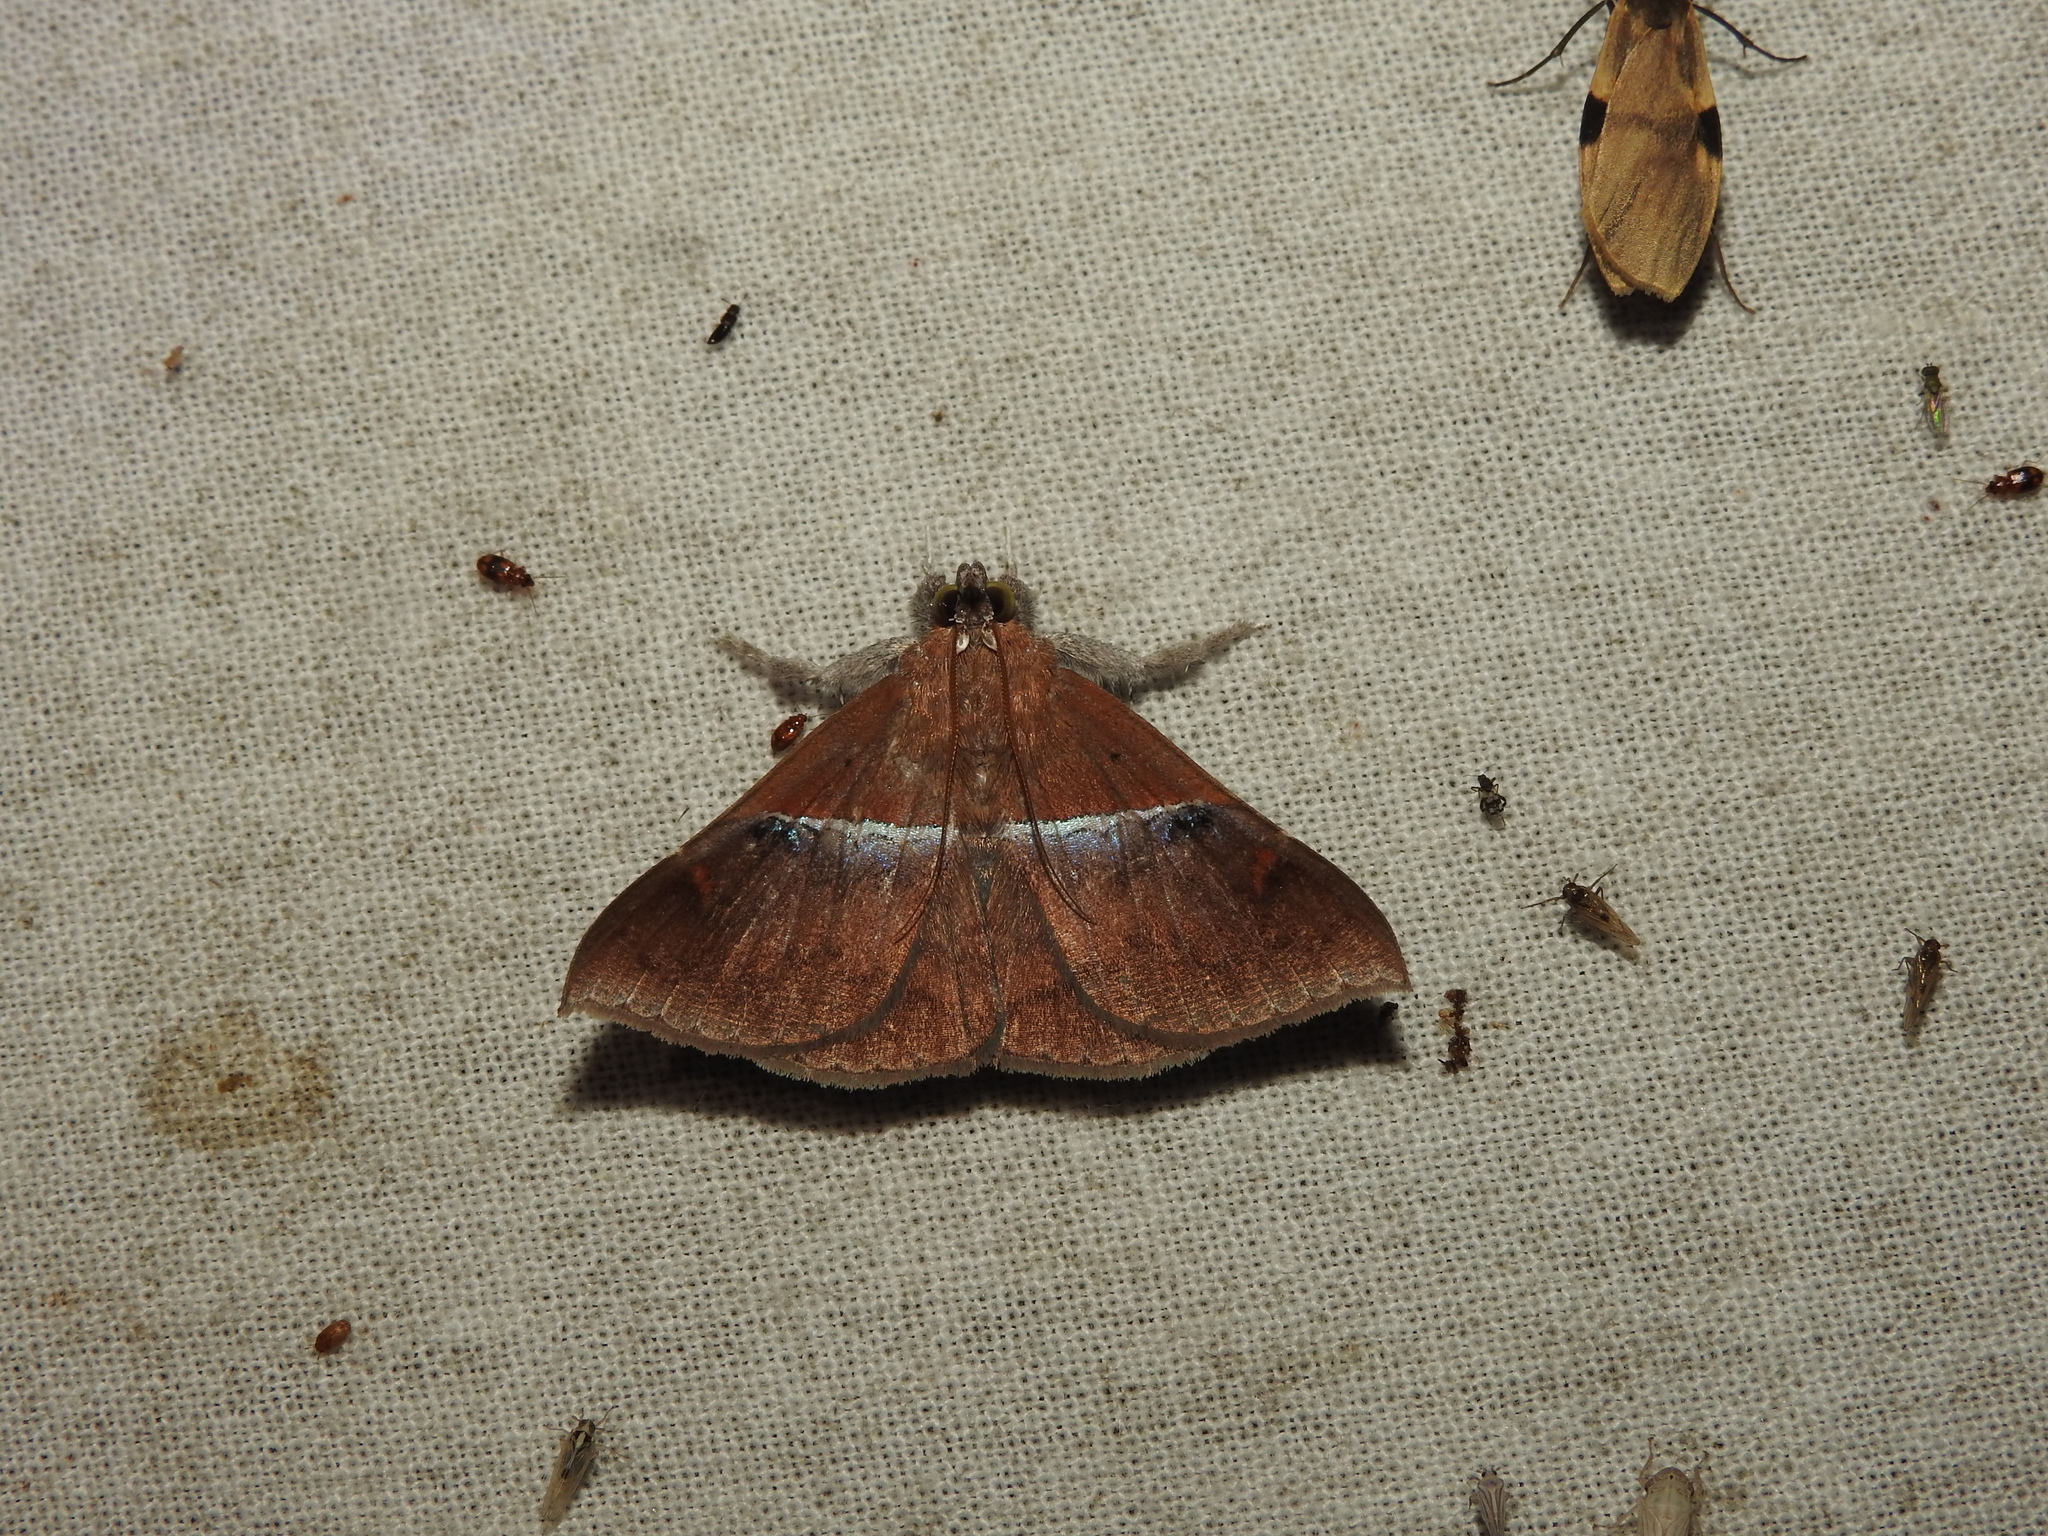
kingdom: Animalia
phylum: Arthropoda
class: Insecta
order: Lepidoptera
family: Erebidae
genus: Sympis
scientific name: Sympis rufibasis
